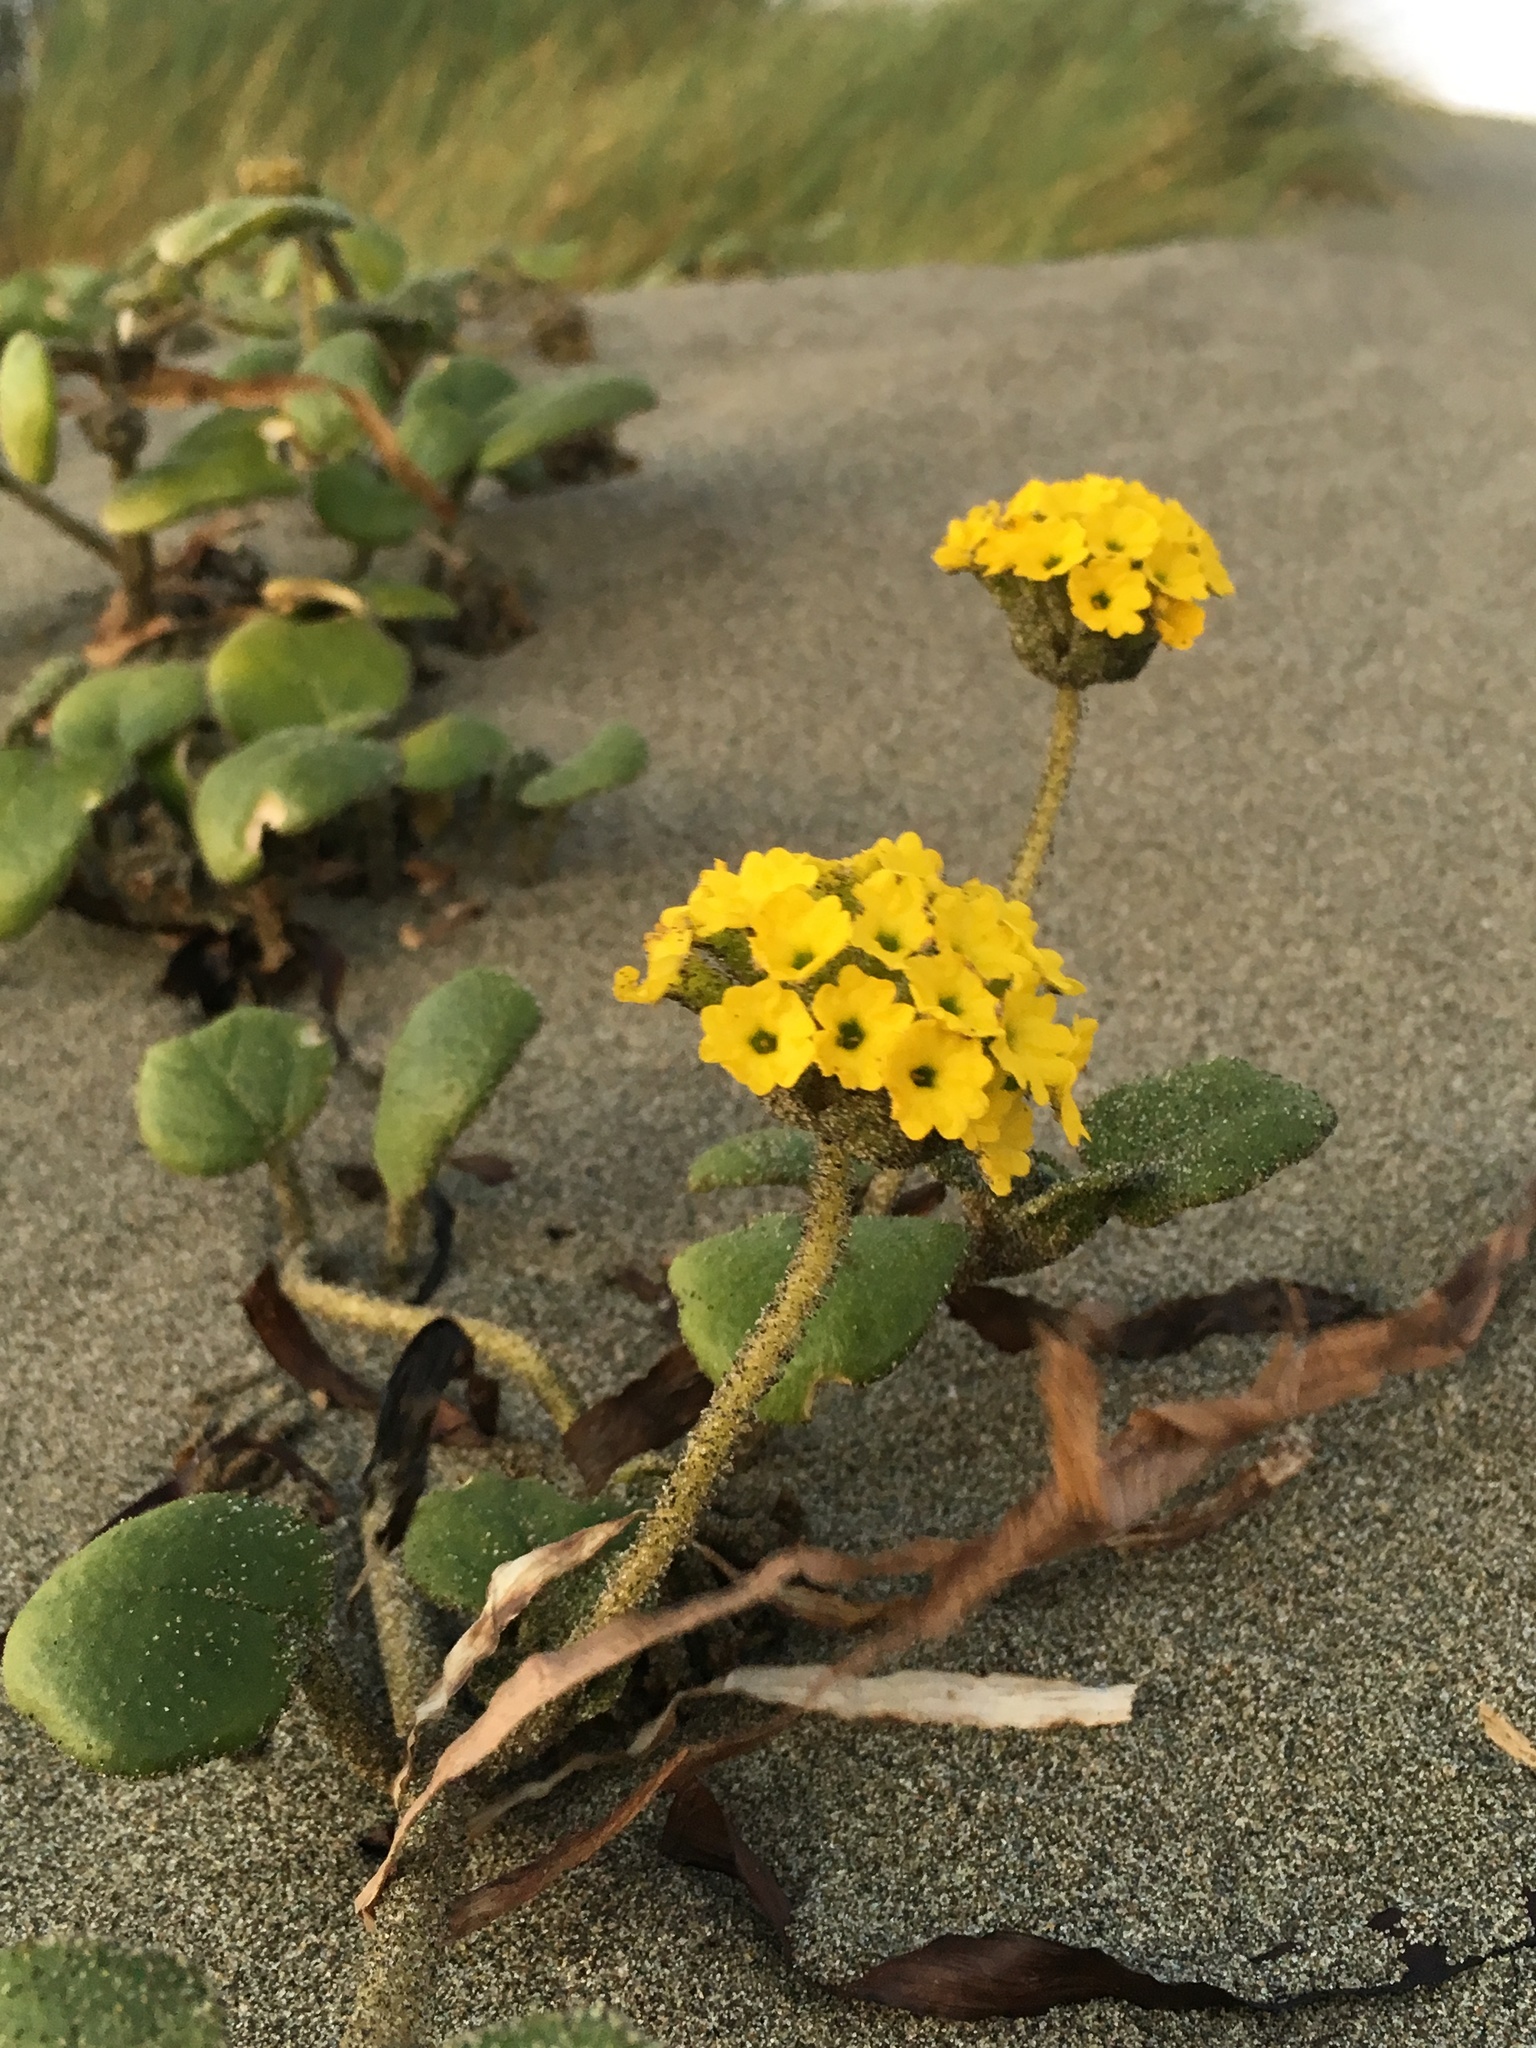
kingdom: Plantae
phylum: Tracheophyta
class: Magnoliopsida
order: Caryophyllales
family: Nyctaginaceae
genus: Abronia
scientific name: Abronia latifolia
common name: Yellow sand-verbena
